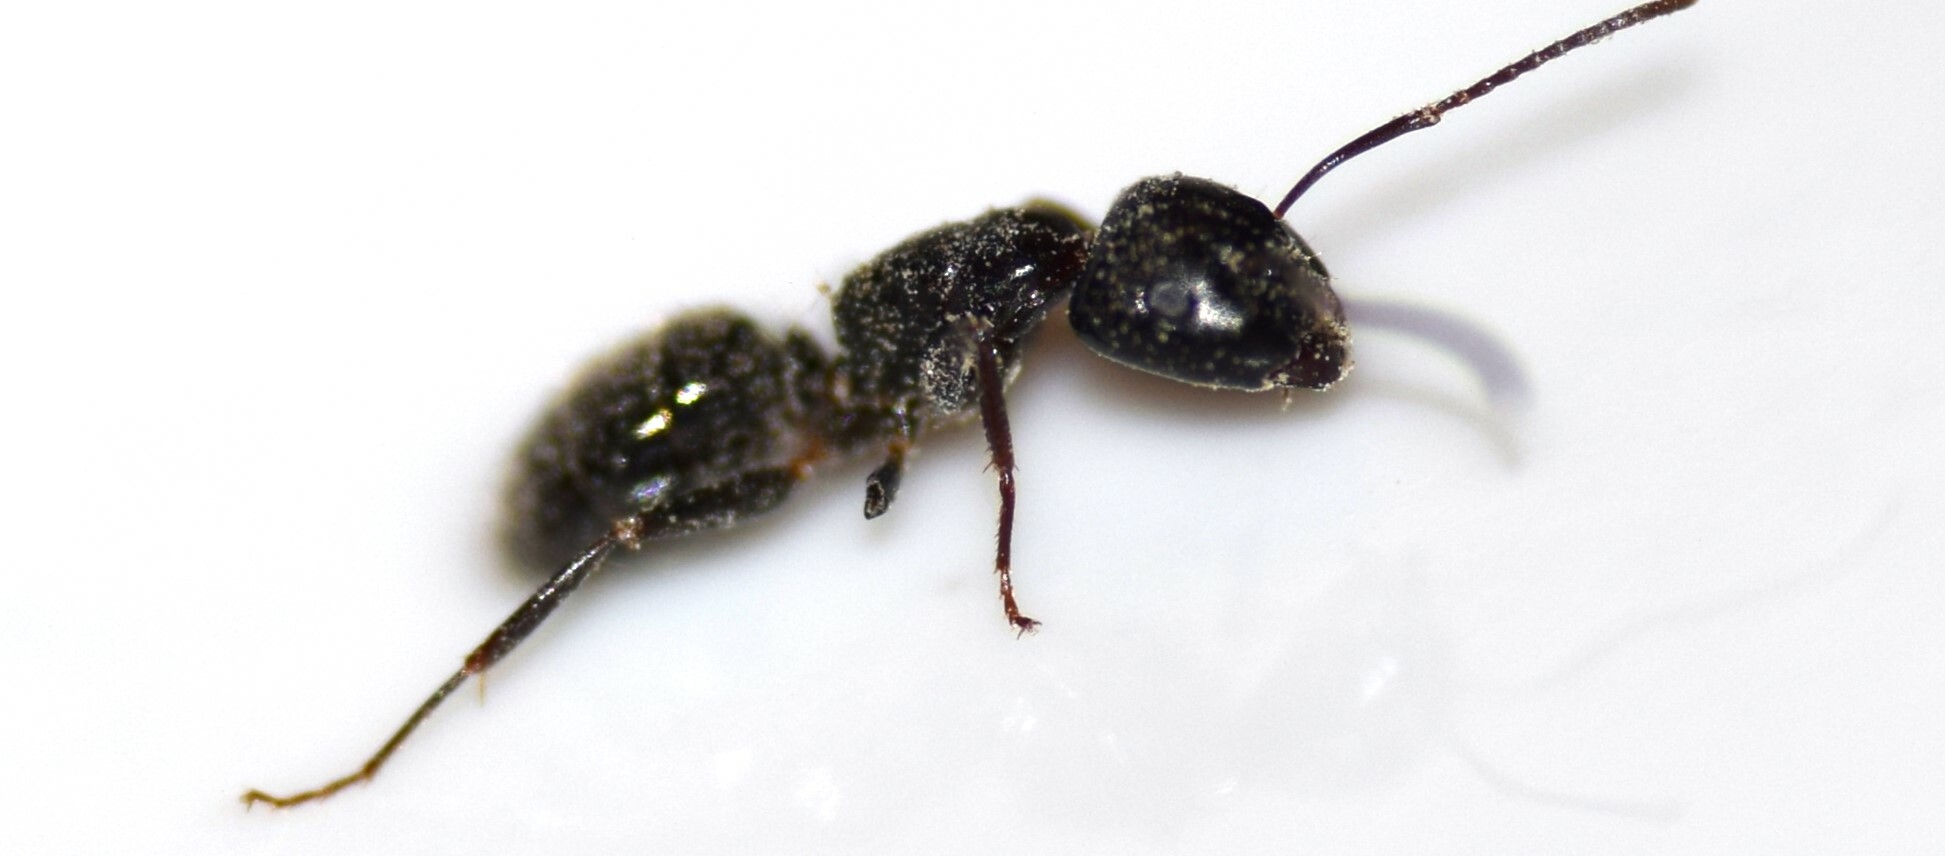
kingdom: Animalia
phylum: Arthropoda
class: Insecta
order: Hymenoptera
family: Formicidae
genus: Camponotus
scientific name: Camponotus nearcticus
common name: Smaller carpenter ant
